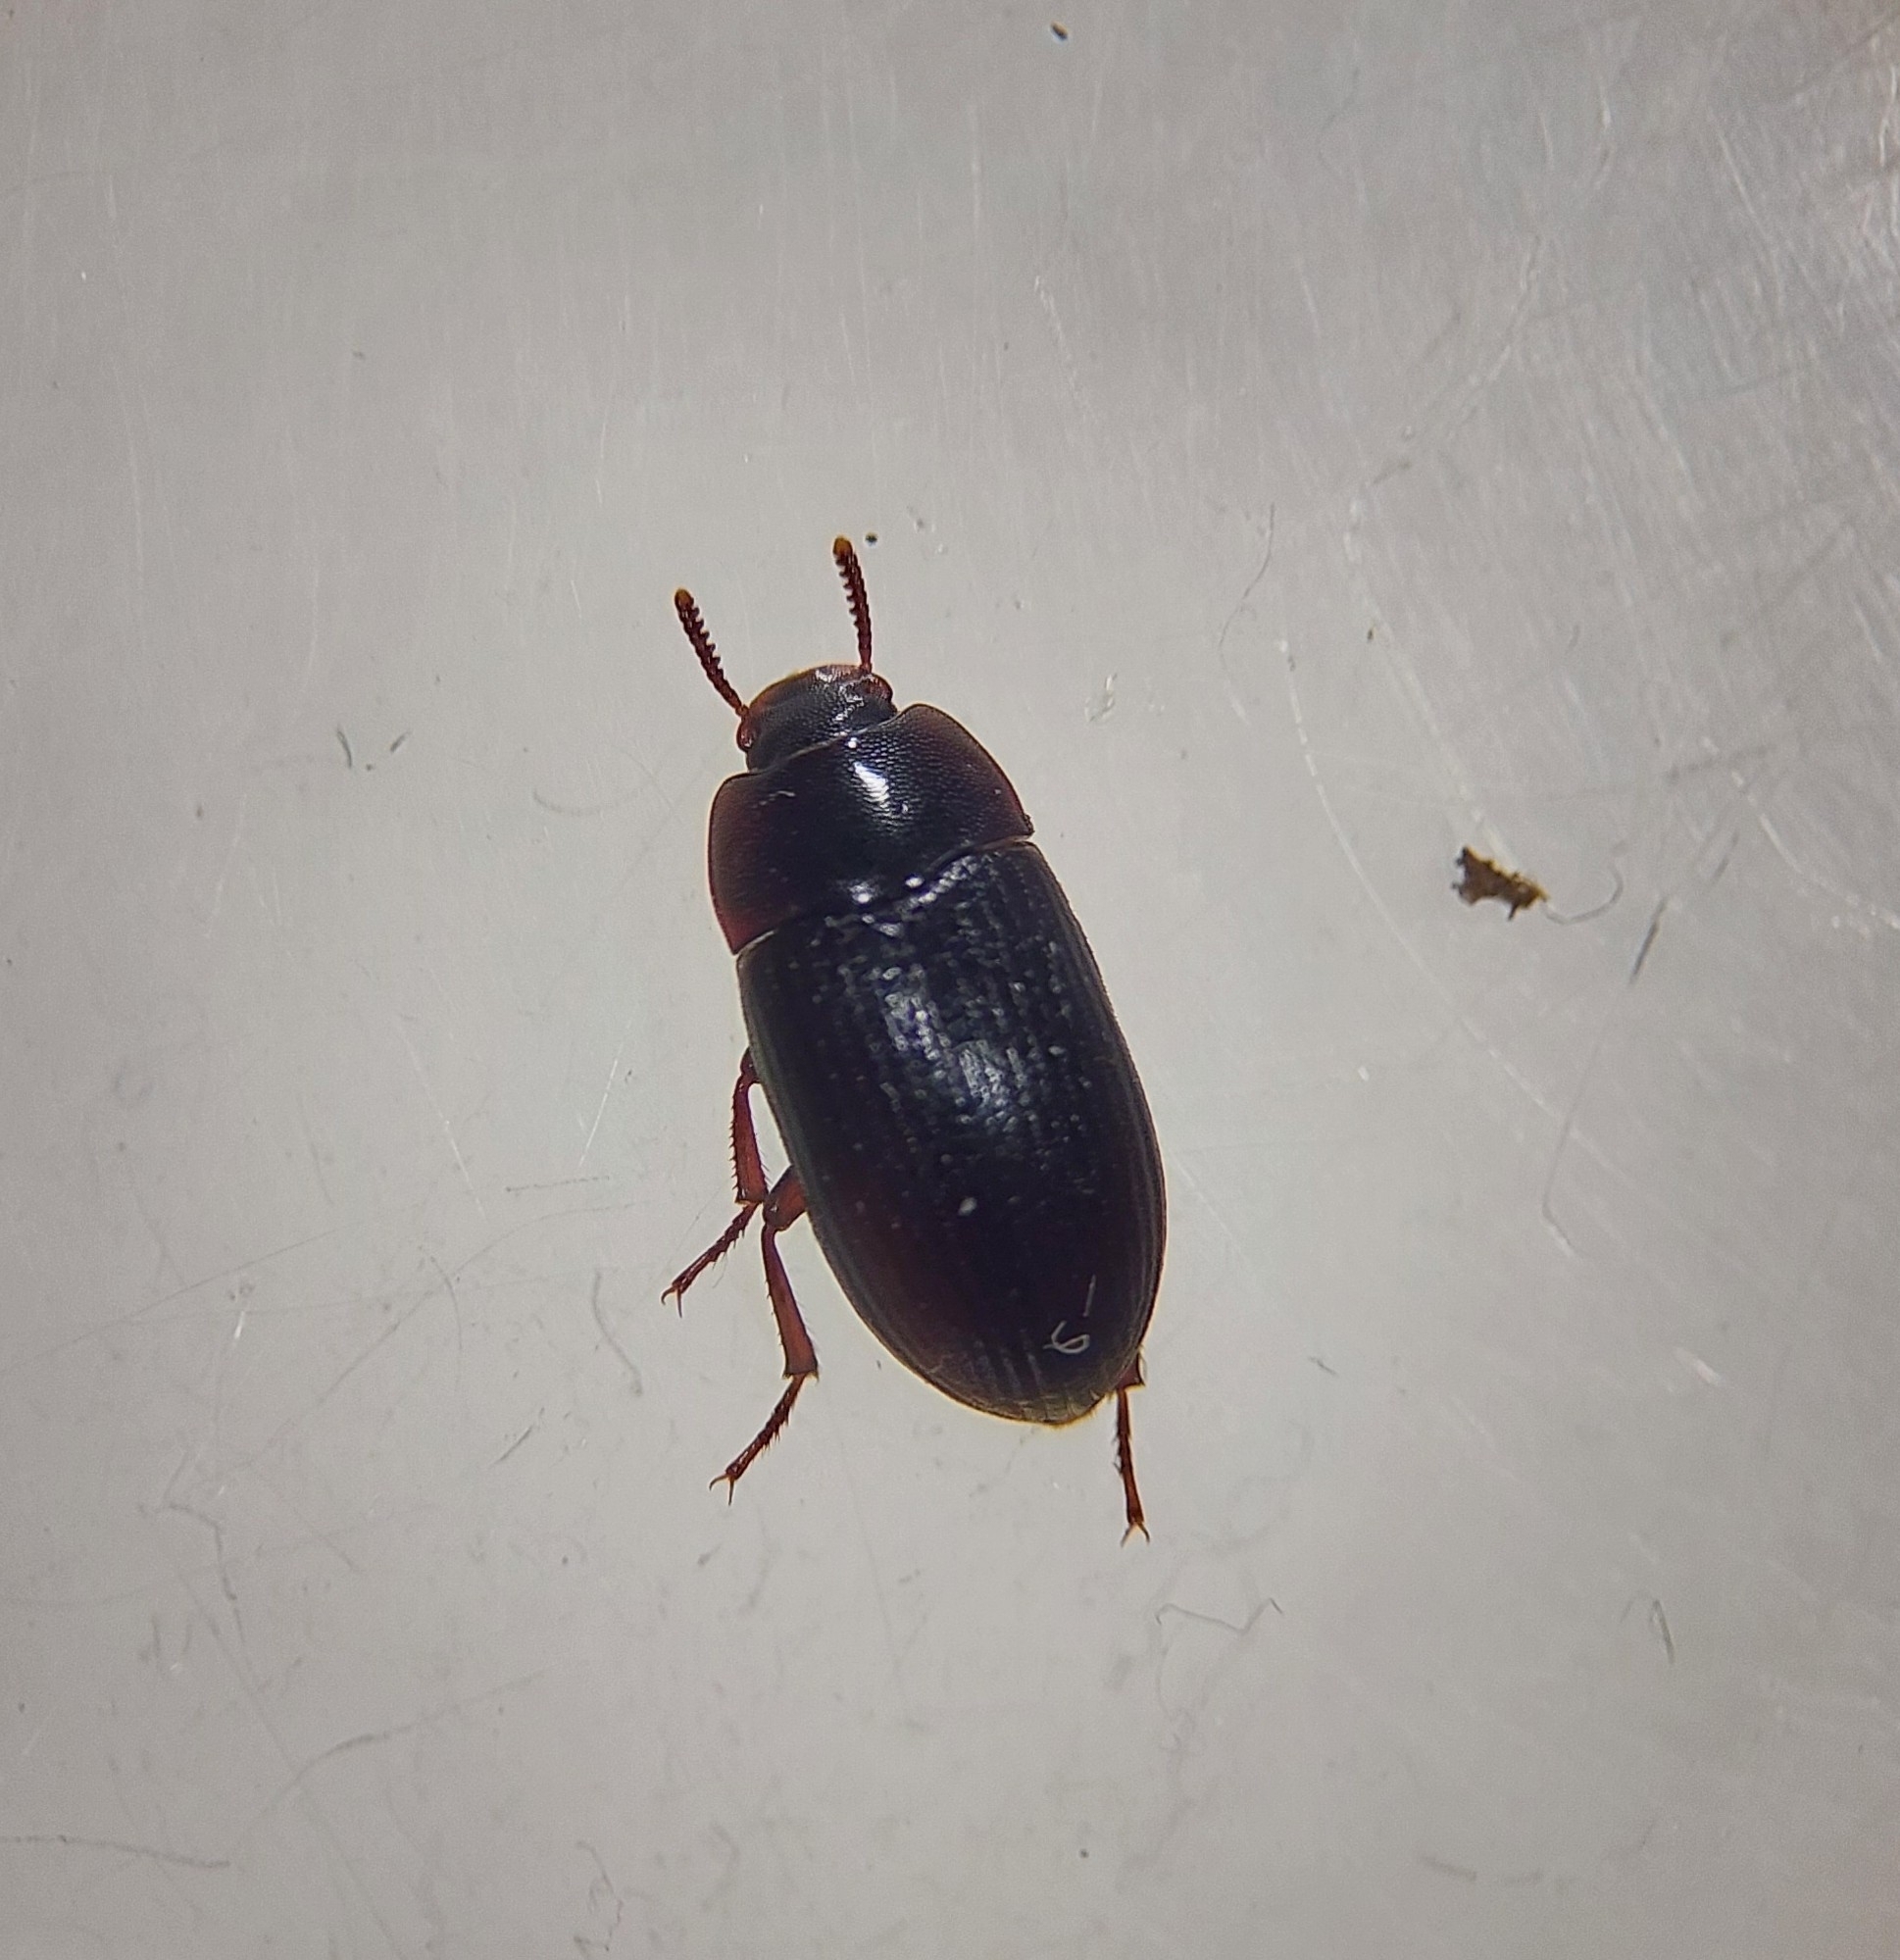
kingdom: Animalia
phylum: Arthropoda
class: Insecta
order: Coleoptera
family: Tenebrionidae
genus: Alphitobius
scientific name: Alphitobius diaperinus
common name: Lesser mealworm
